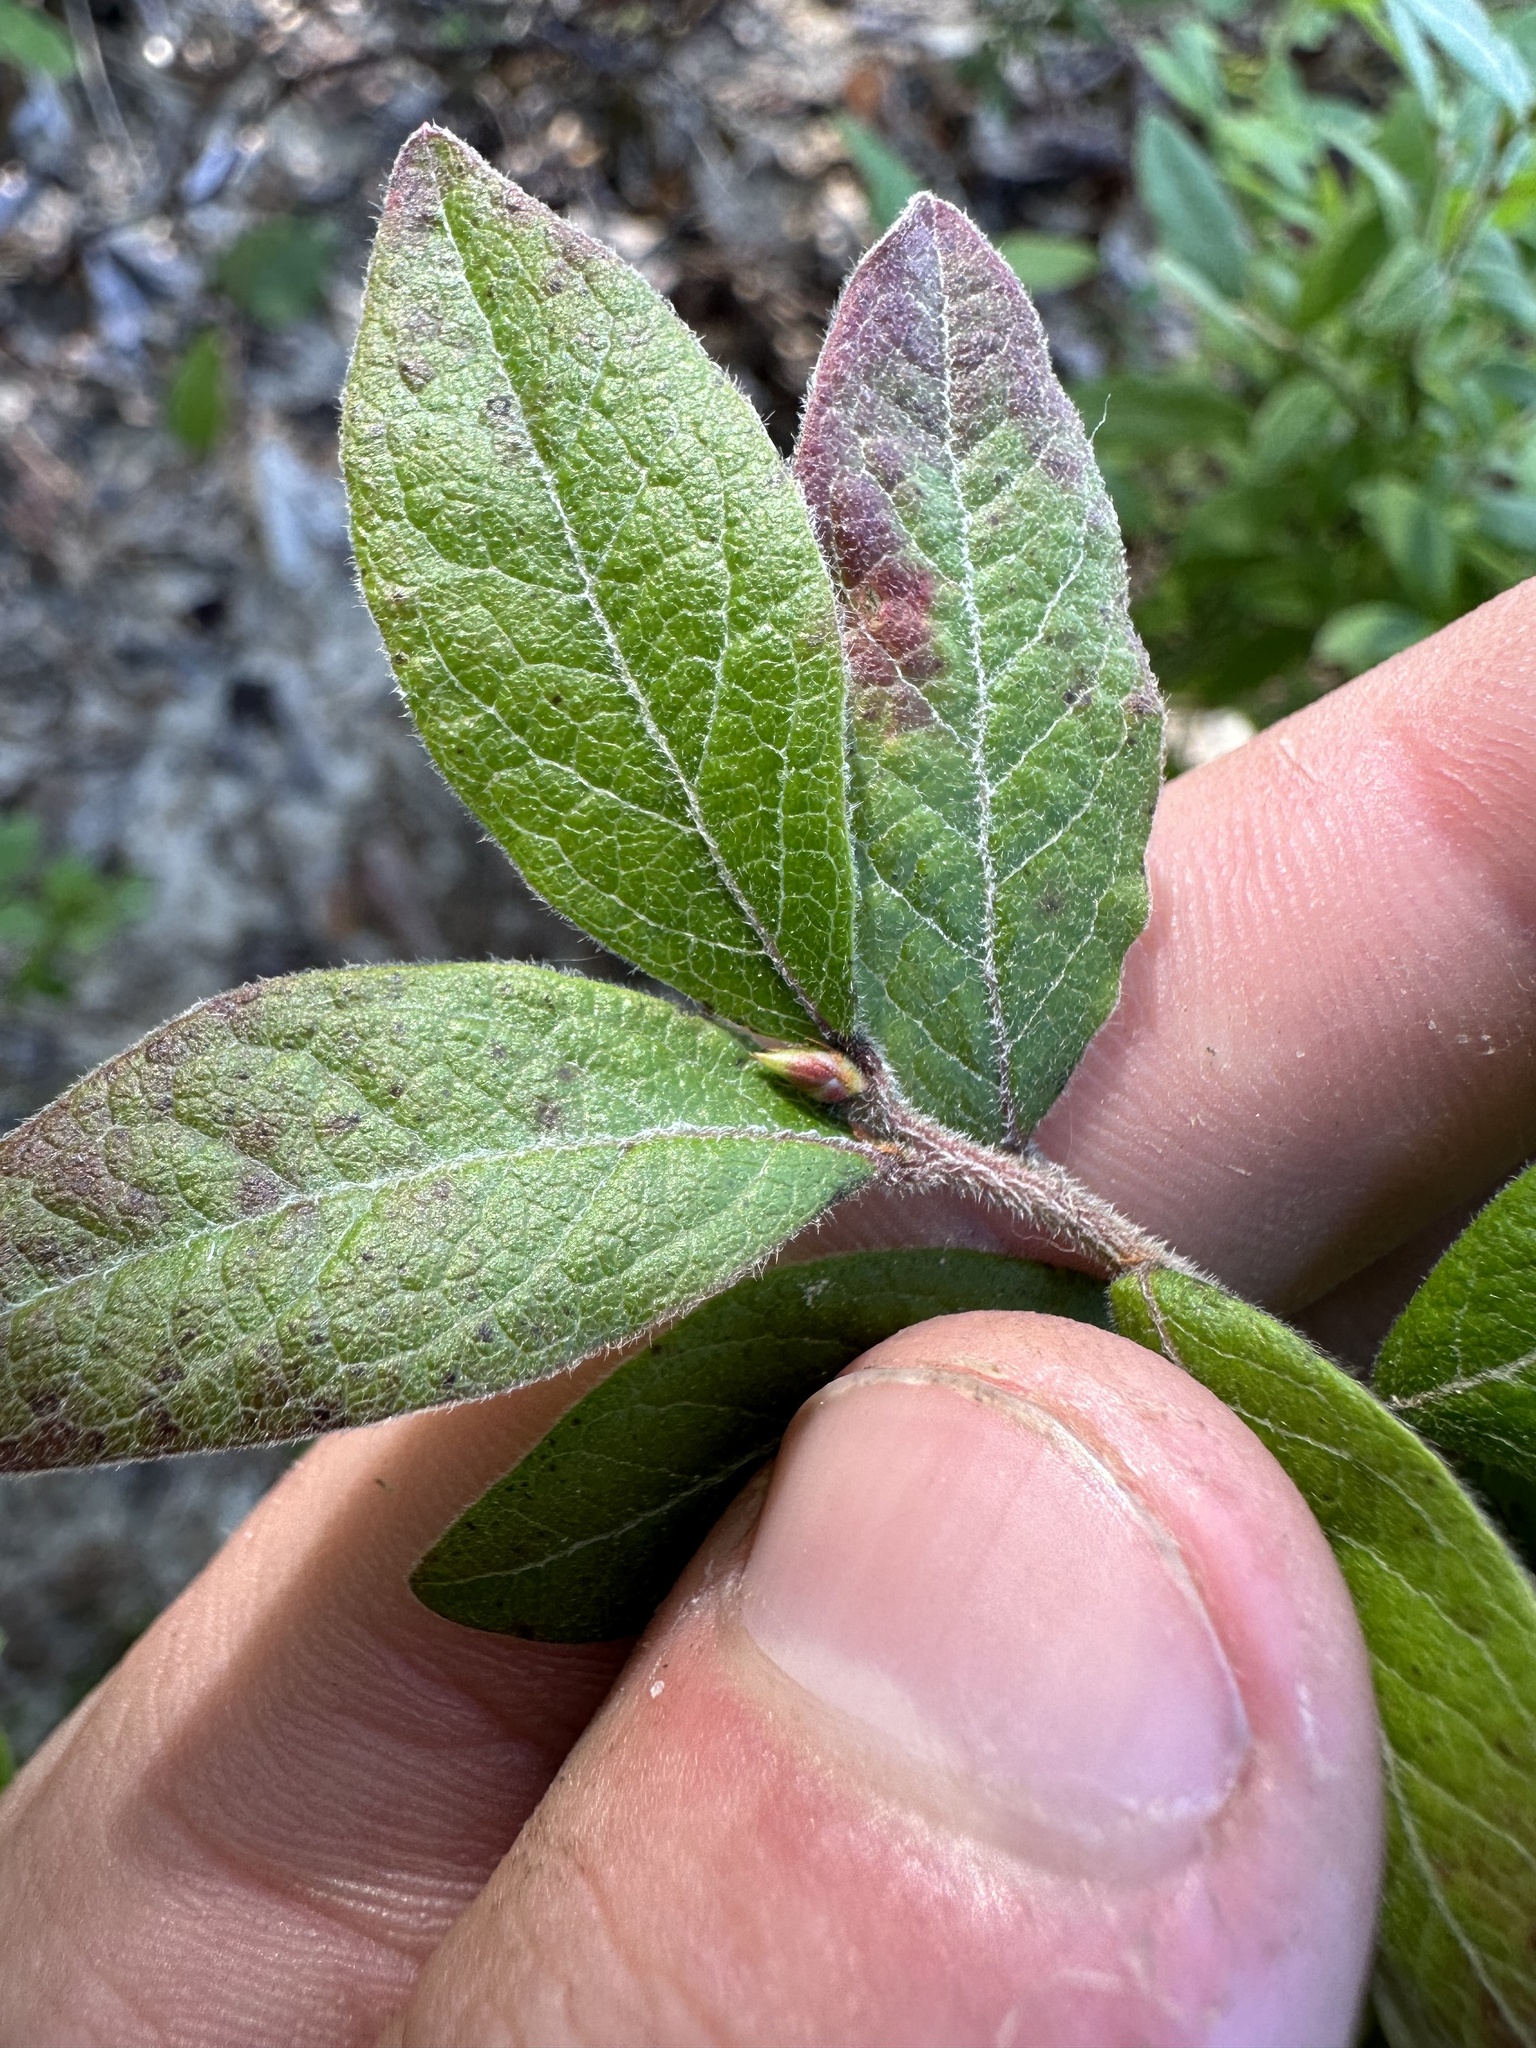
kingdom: Plantae
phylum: Tracheophyta
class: Magnoliopsida
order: Ericales
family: Ericaceae
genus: Vaccinium
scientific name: Vaccinium myrtilloides
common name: Canada blueberry
